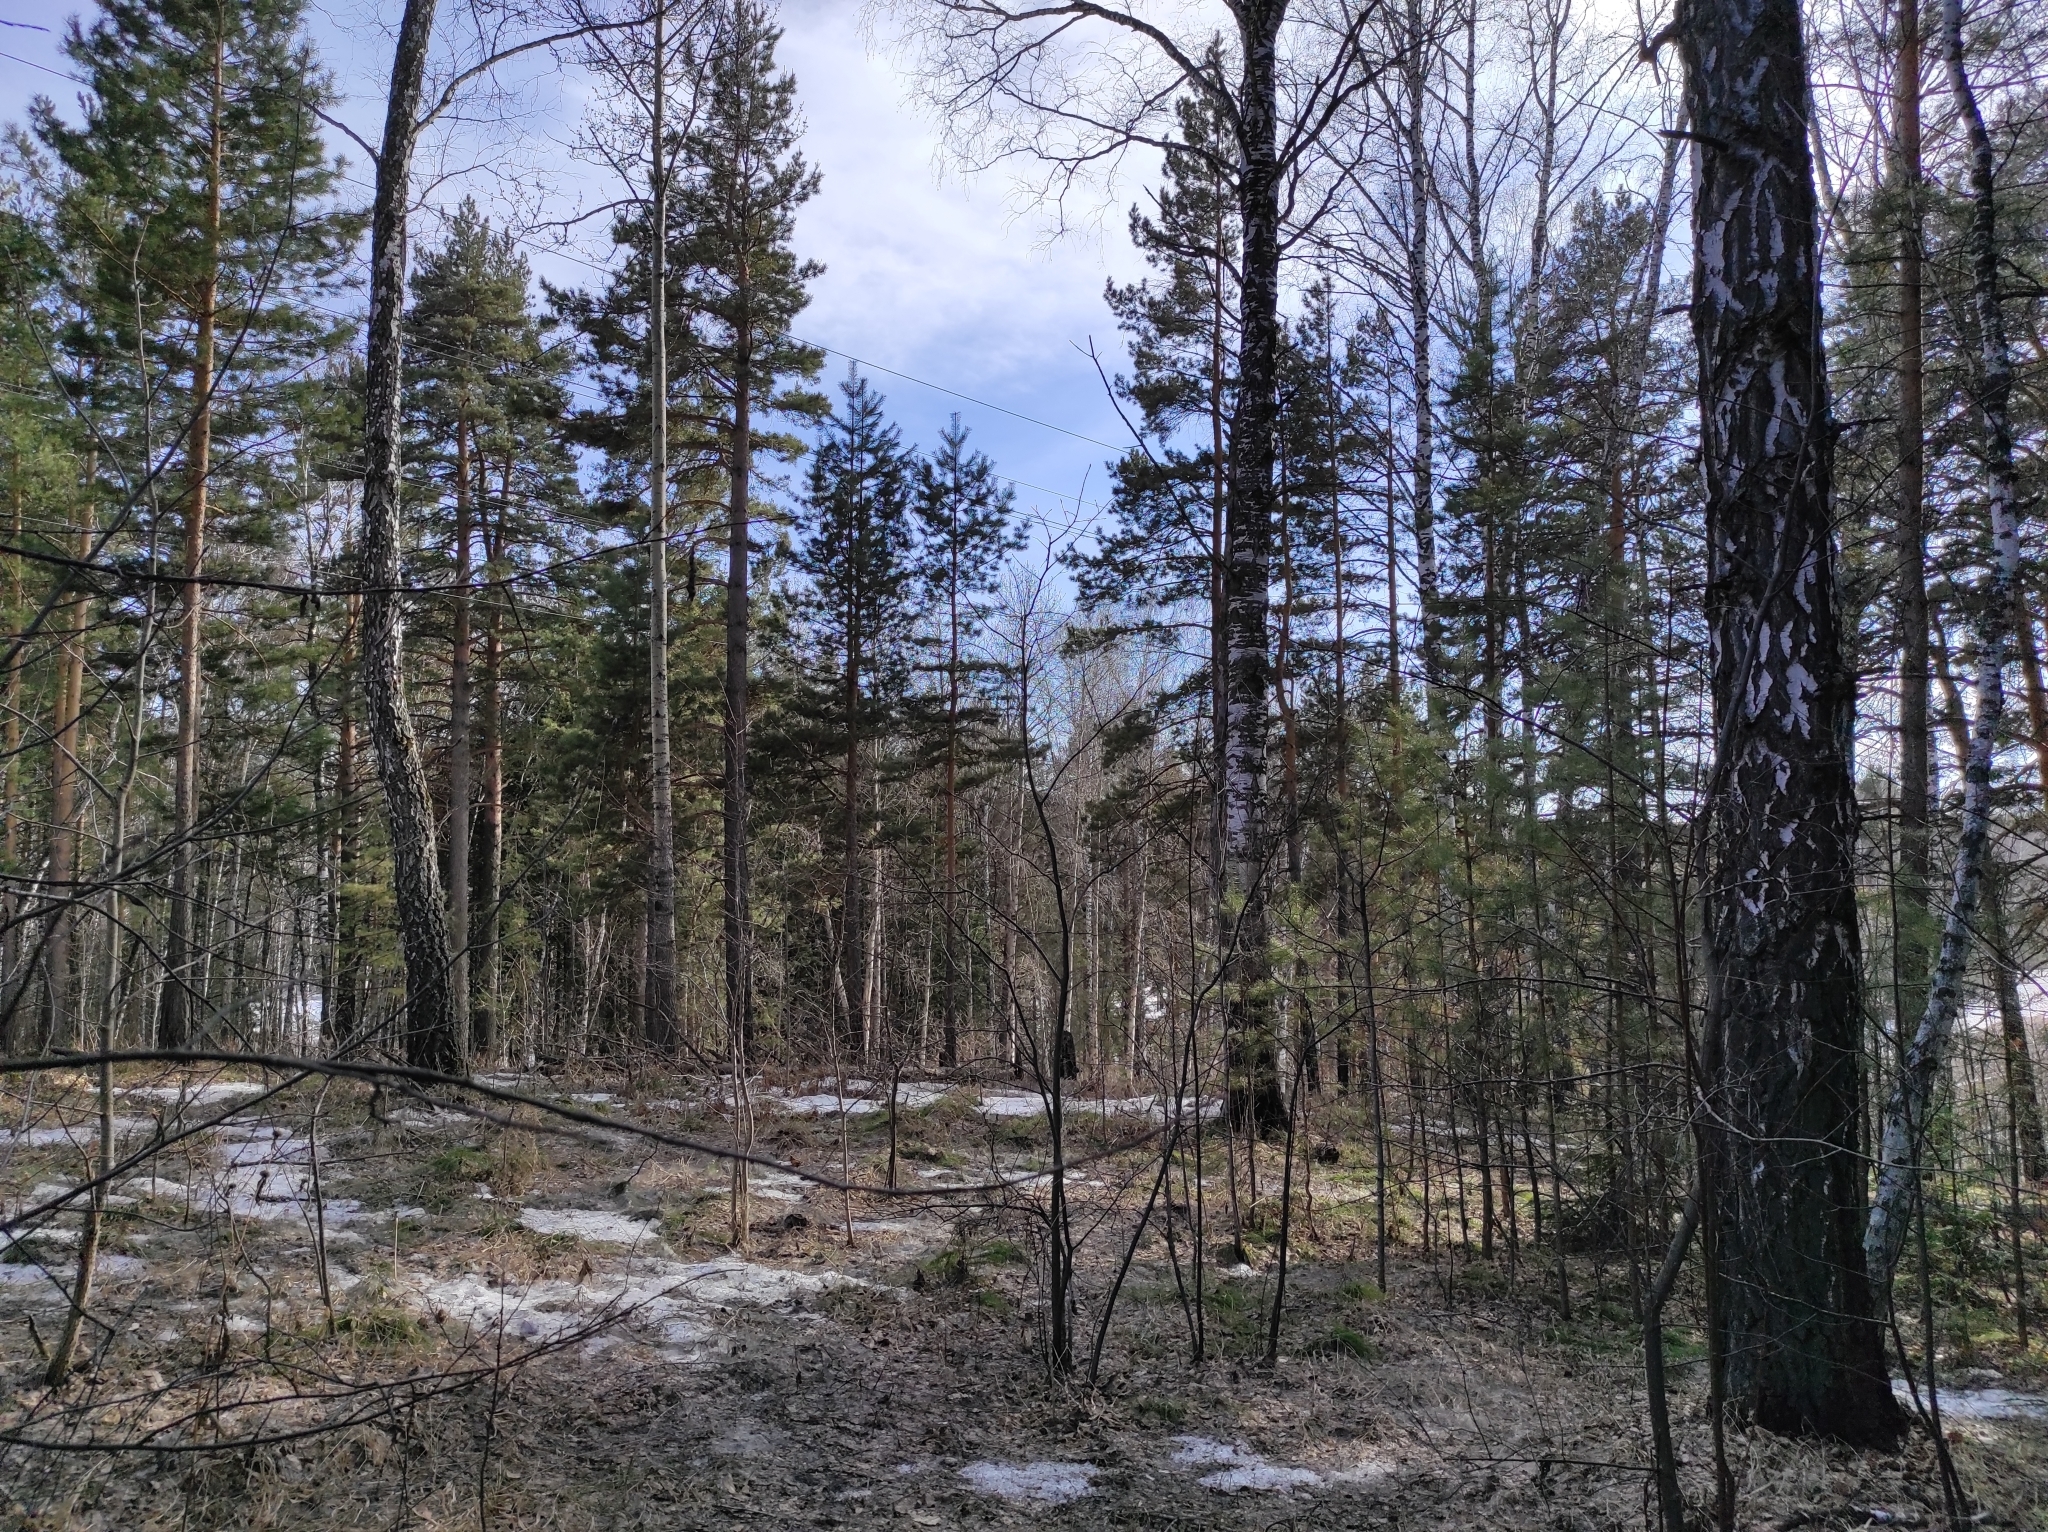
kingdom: Plantae
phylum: Tracheophyta
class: Pinopsida
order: Pinales
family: Pinaceae
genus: Pinus
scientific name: Pinus sylvestris
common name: Scots pine
